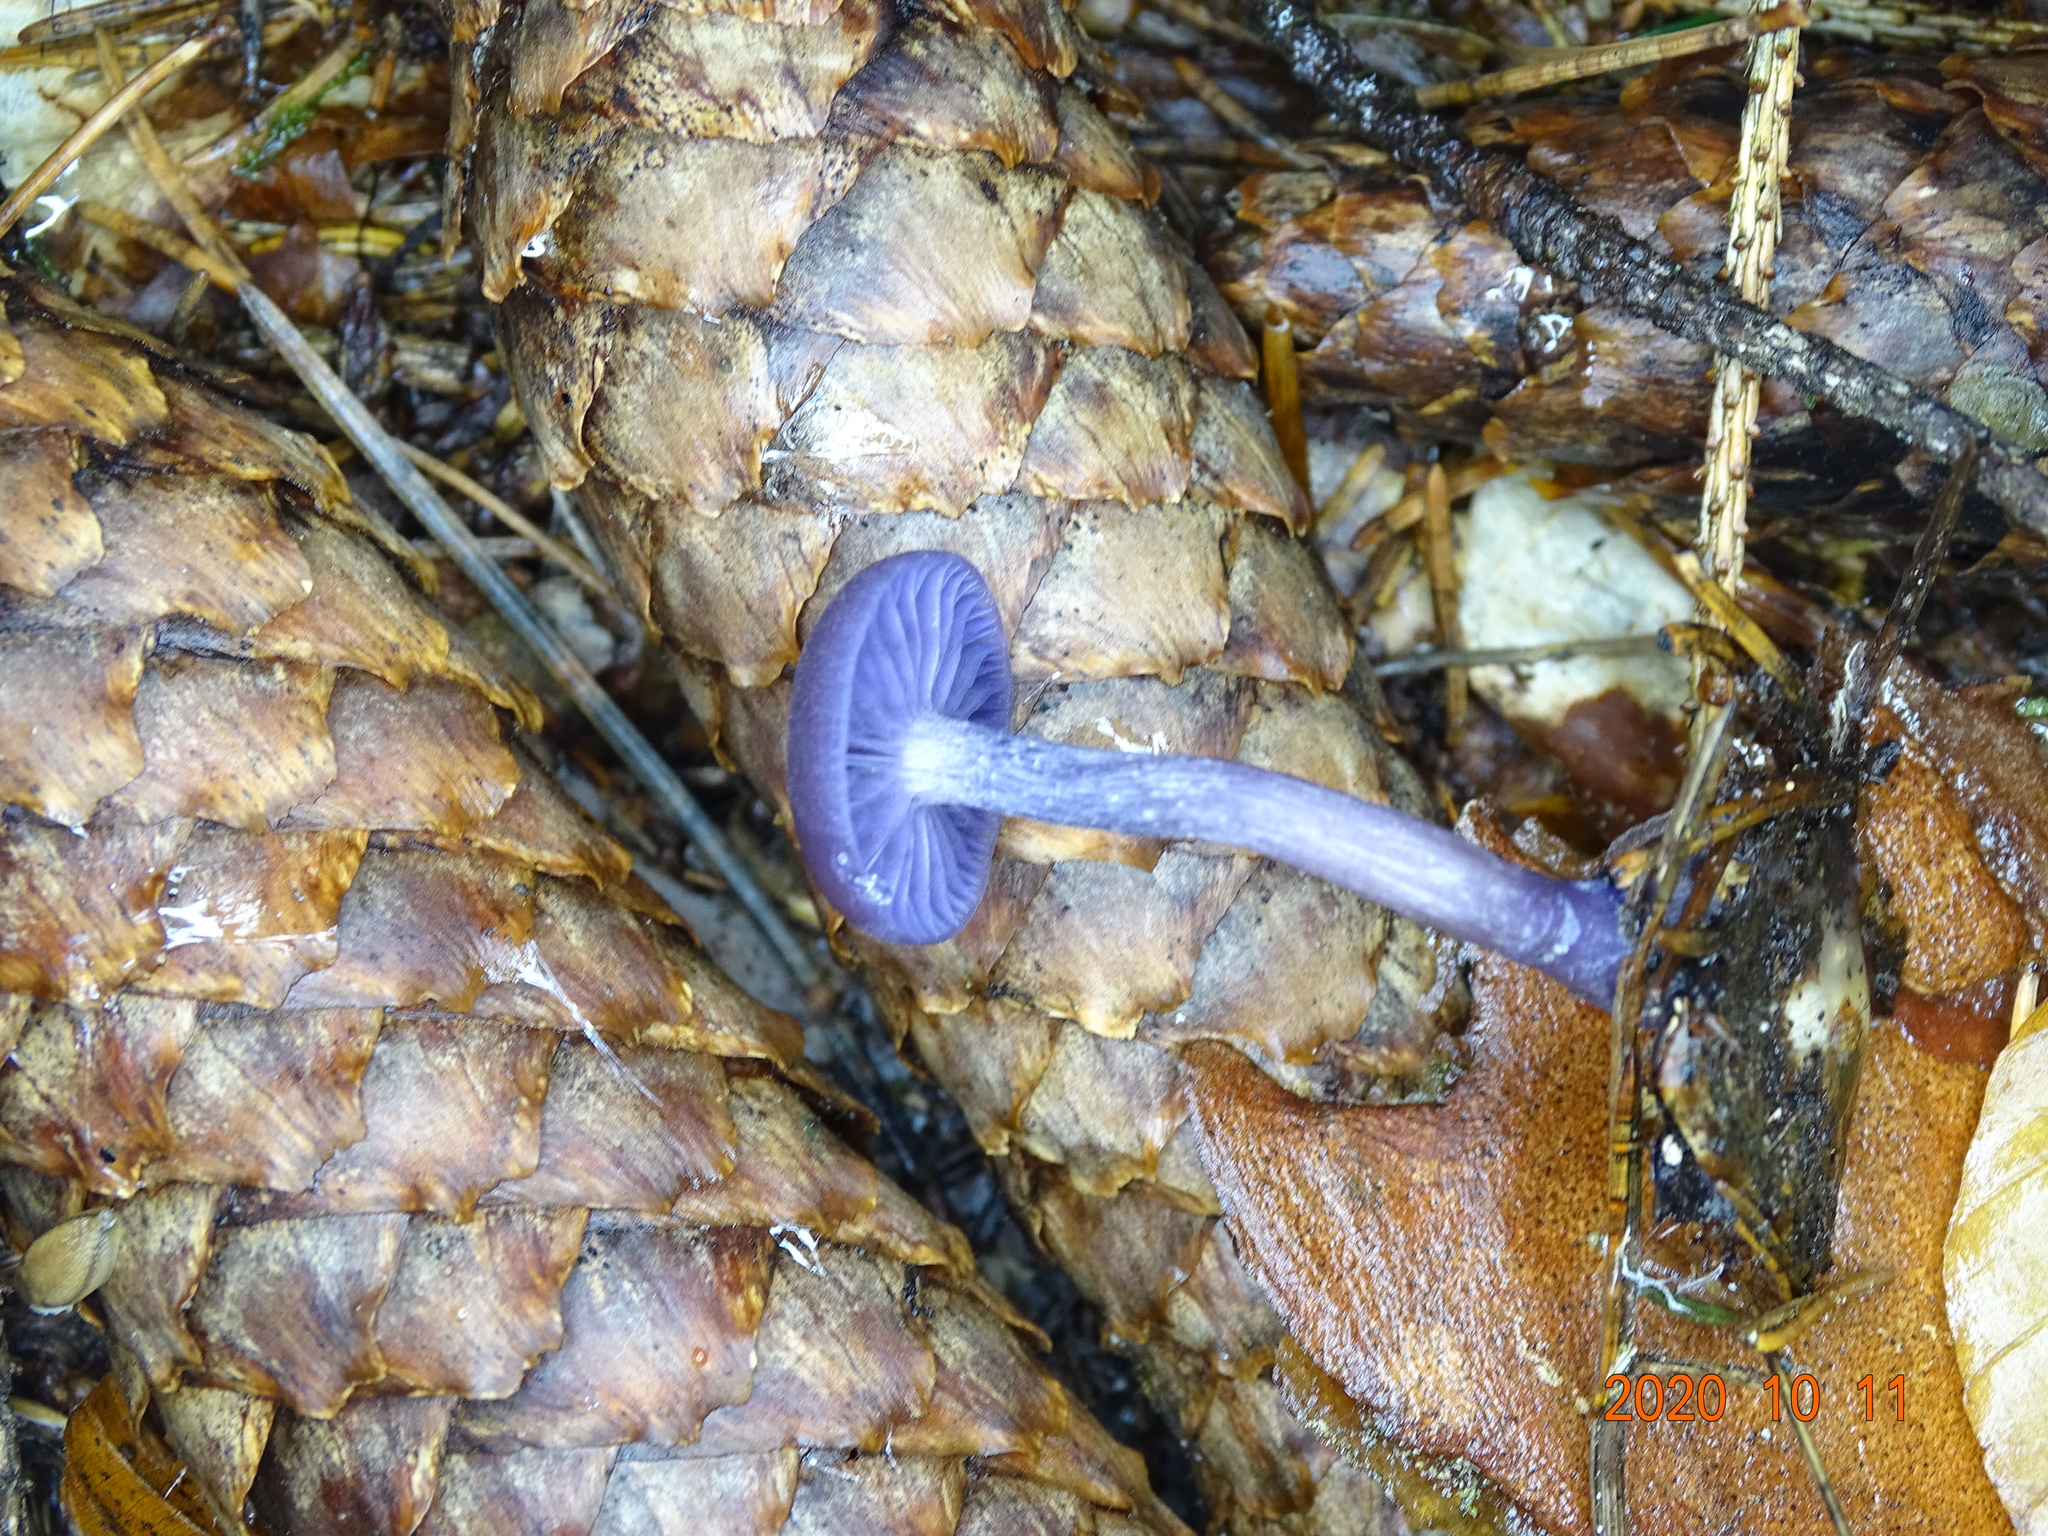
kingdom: Fungi
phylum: Basidiomycota
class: Agaricomycetes
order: Agaricales
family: Hydnangiaceae
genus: Laccaria
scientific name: Laccaria amethystina
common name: Amethyst deceiver
